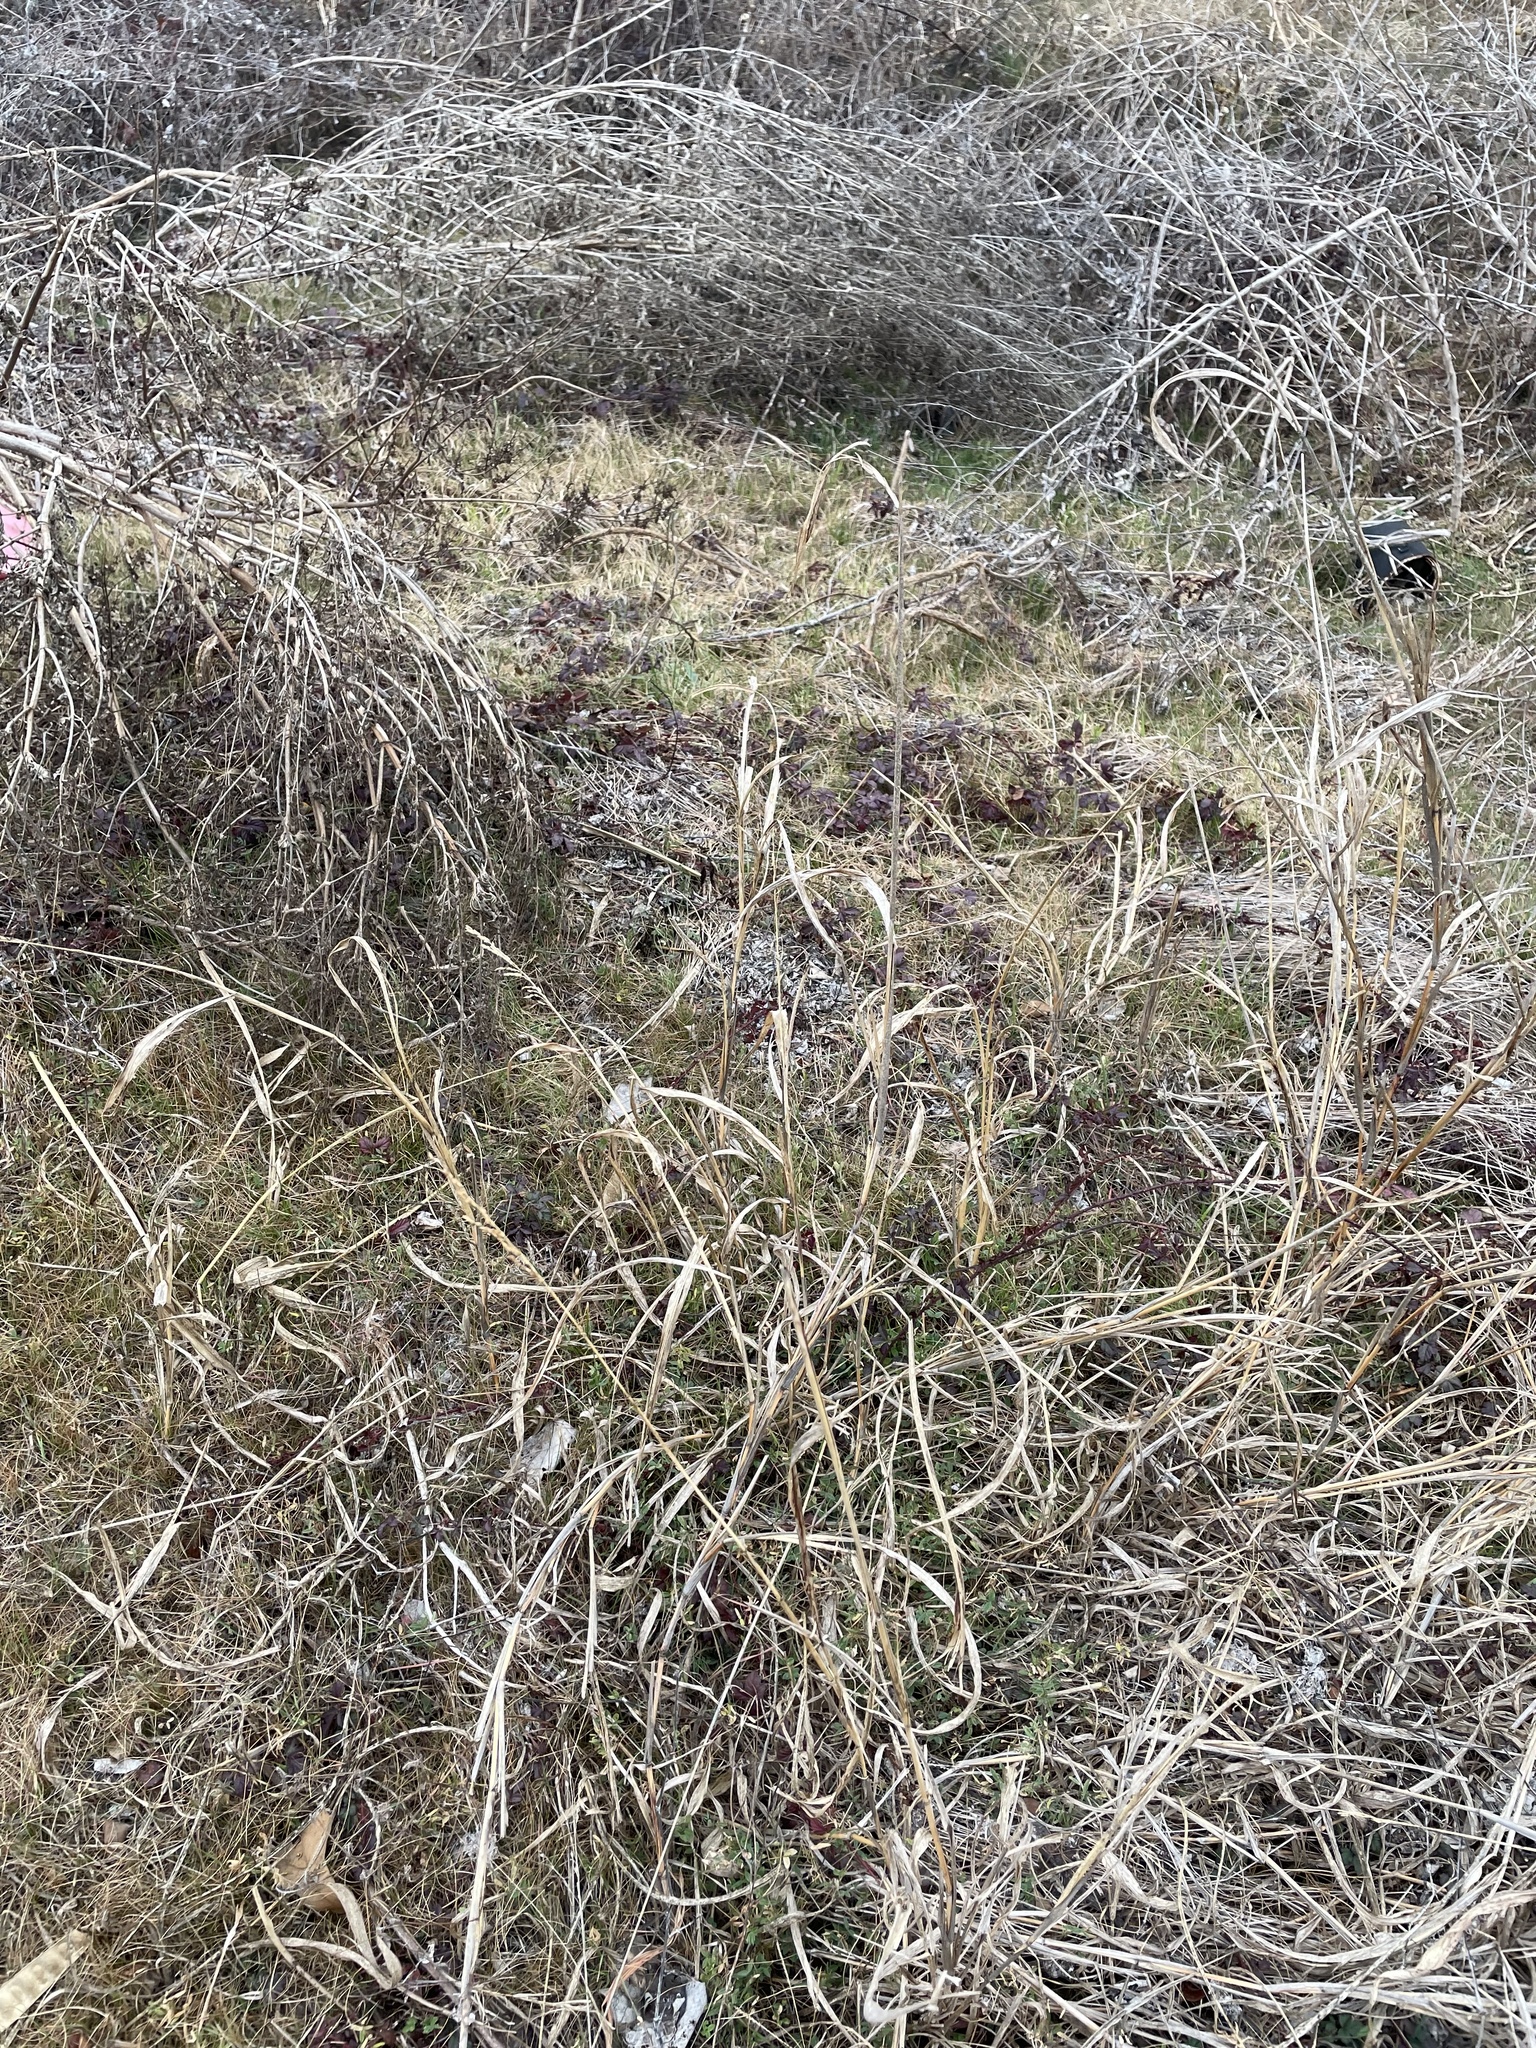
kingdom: Plantae
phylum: Tracheophyta
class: Liliopsida
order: Poales
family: Poaceae
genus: Sorghum
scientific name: Sorghum halepense
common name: Johnson-grass
